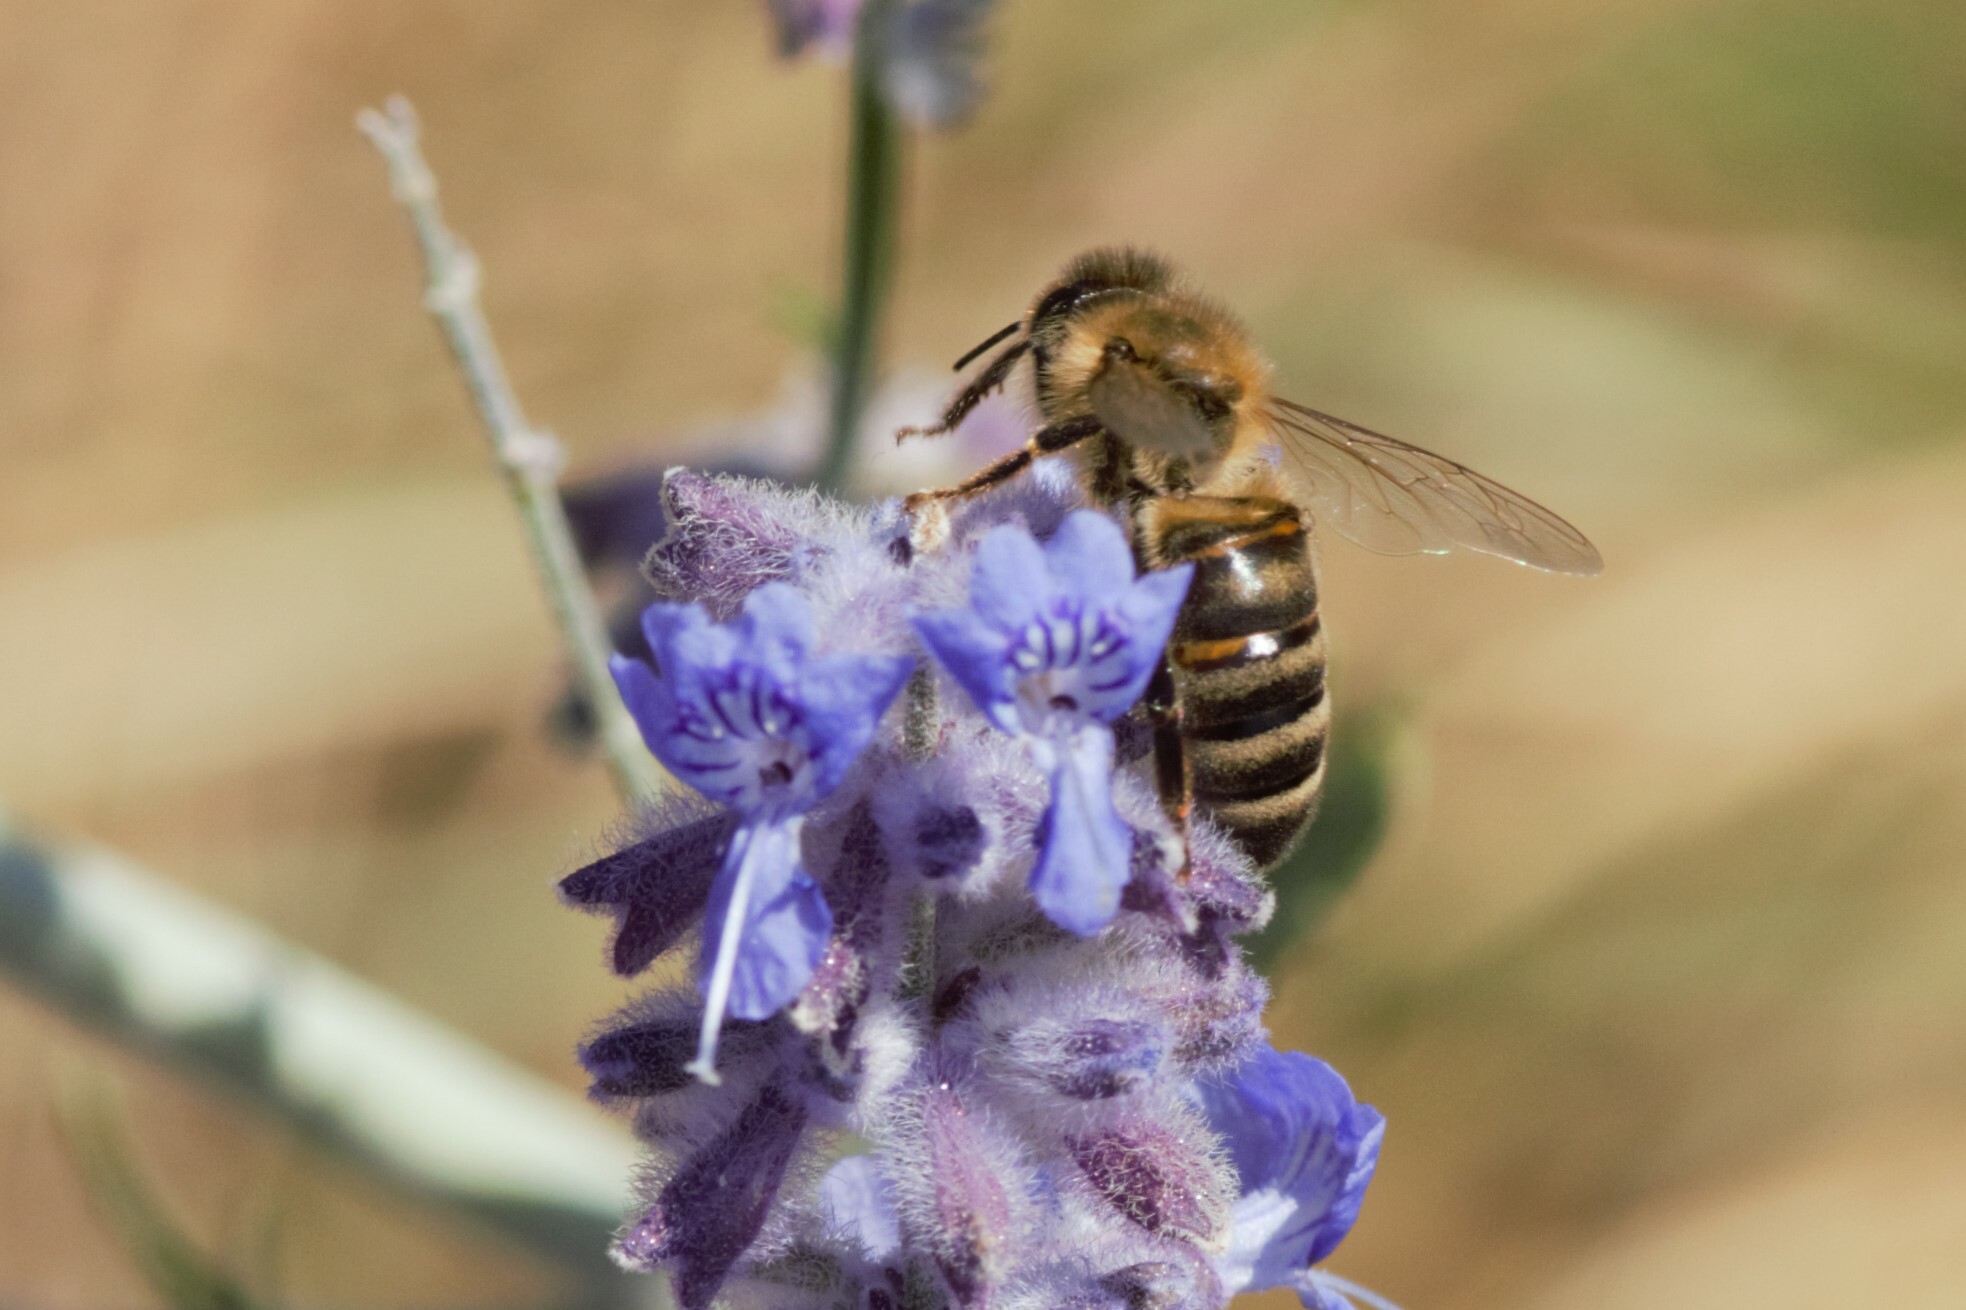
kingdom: Animalia
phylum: Arthropoda
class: Insecta
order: Hymenoptera
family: Apidae
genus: Apis
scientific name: Apis mellifera
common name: Honey bee
